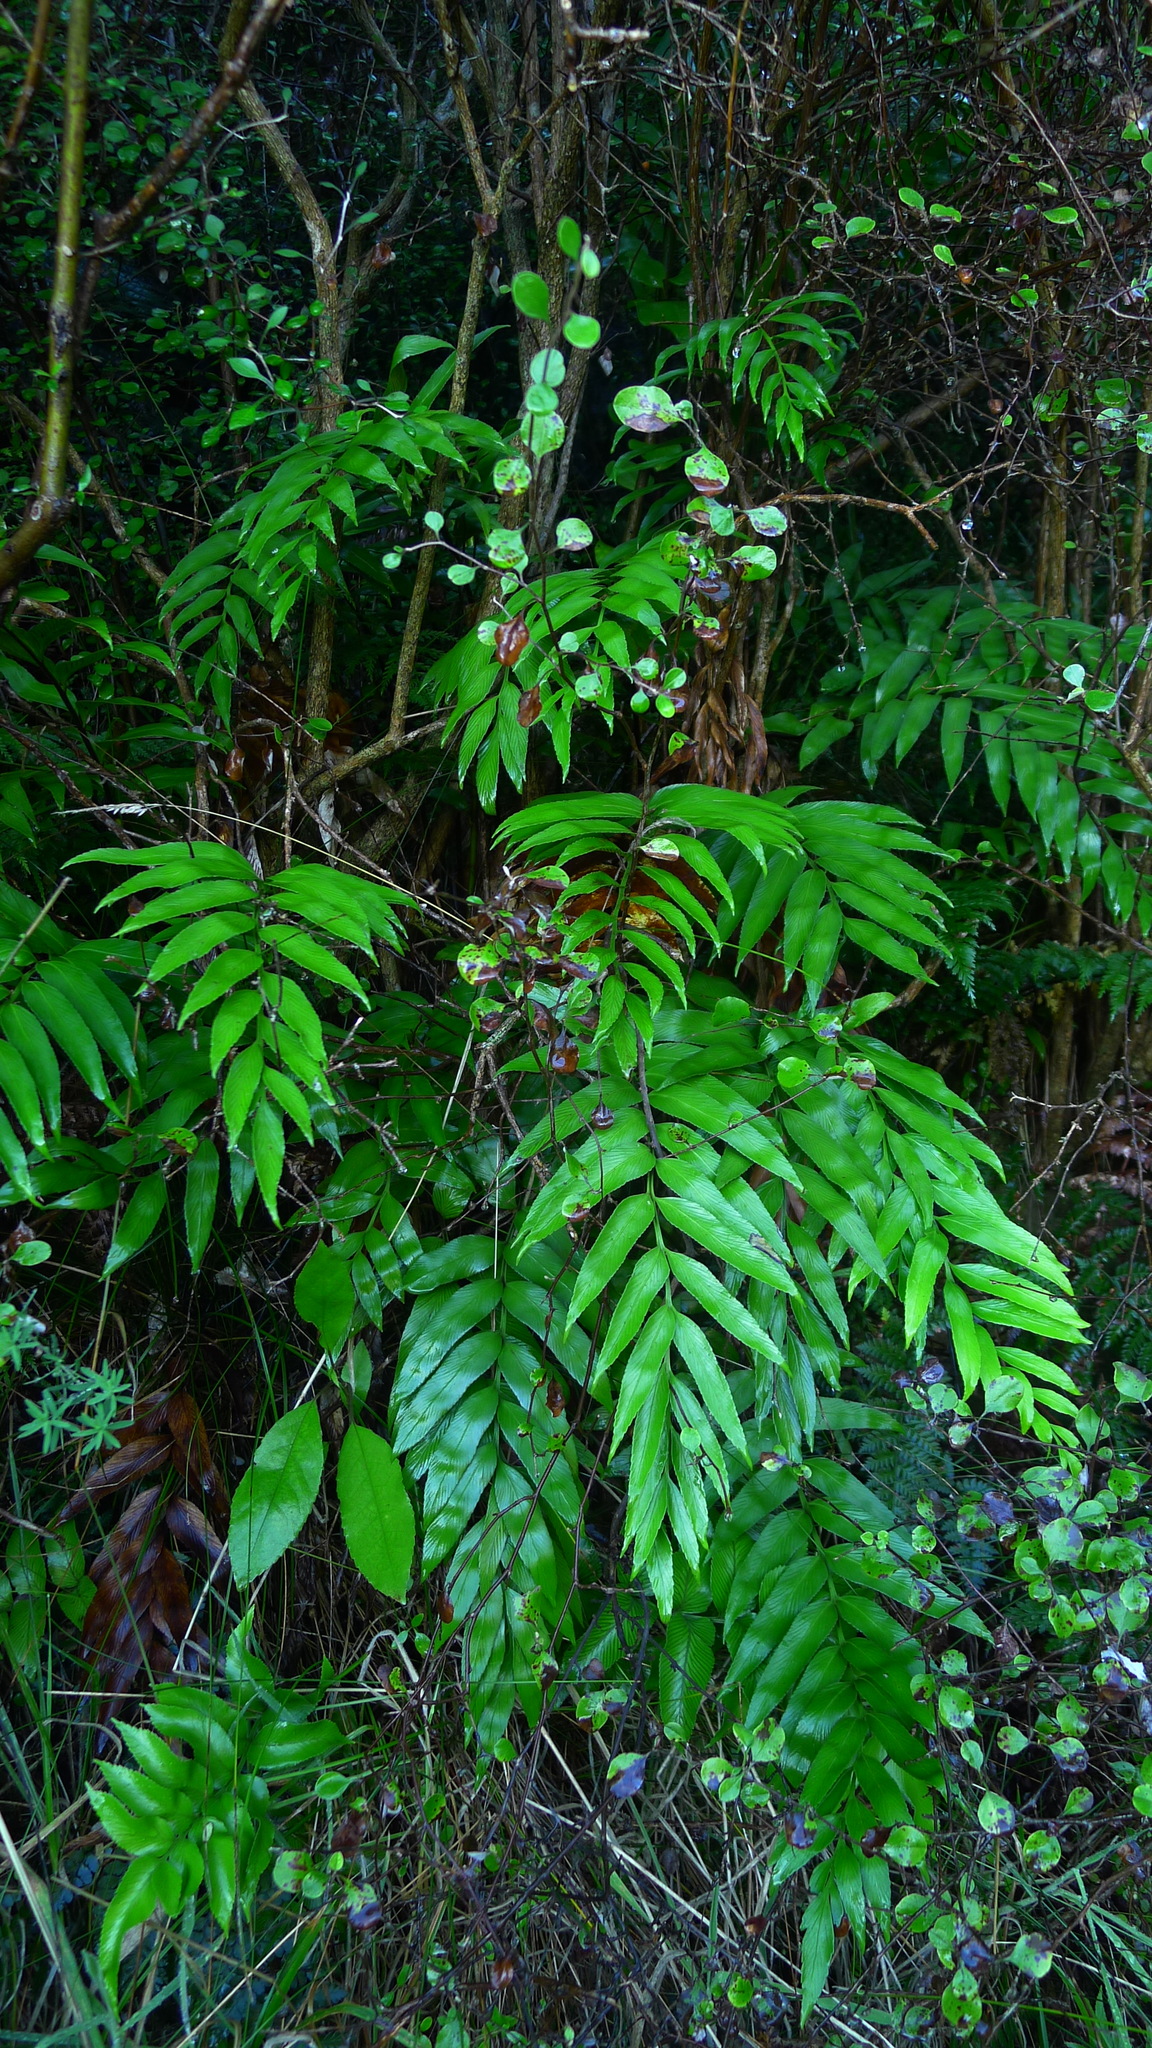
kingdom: Plantae
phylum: Tracheophyta
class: Polypodiopsida
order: Polypodiales
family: Aspleniaceae
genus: Asplenium
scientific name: Asplenium oblongifolium
